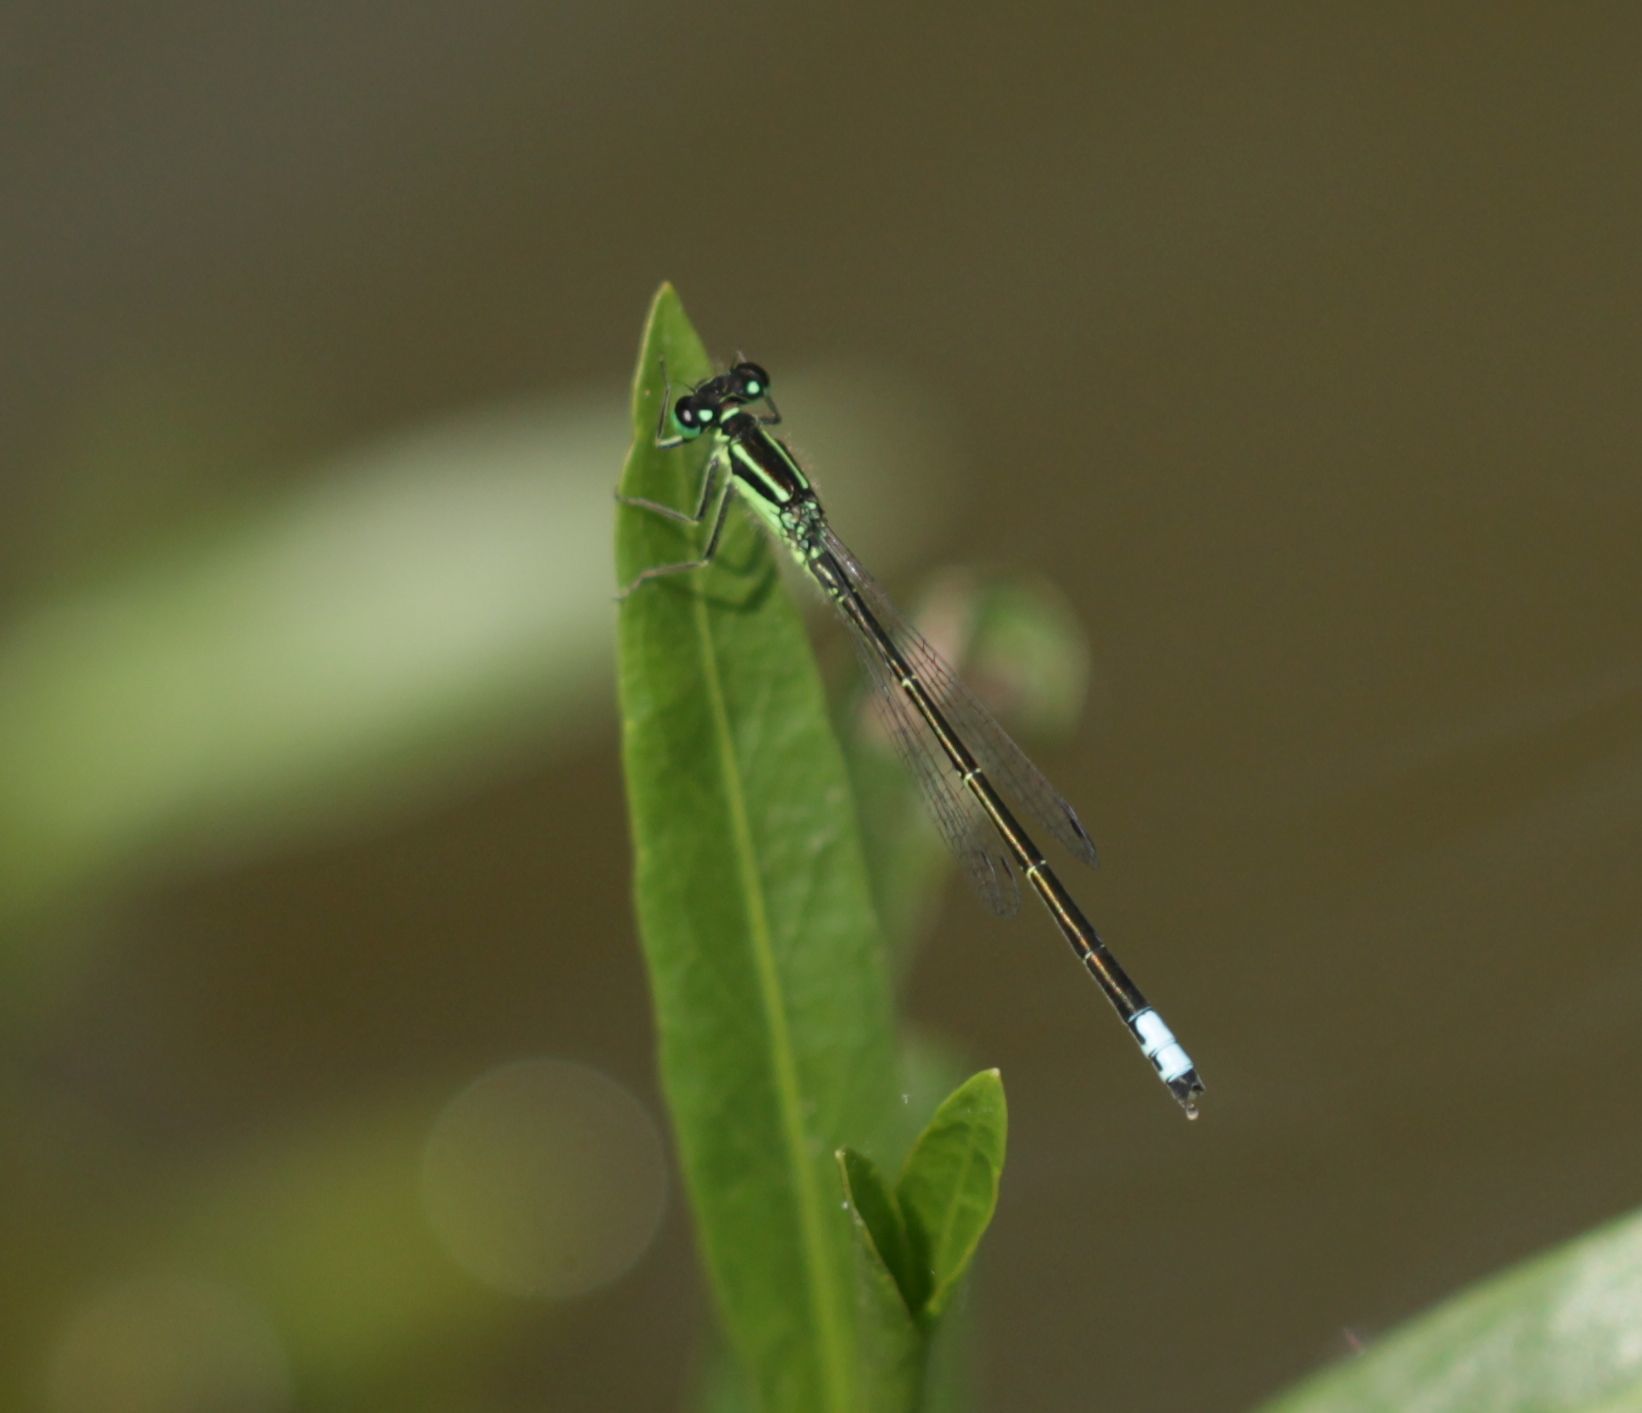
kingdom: Animalia
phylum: Arthropoda
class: Insecta
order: Odonata
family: Coenagrionidae
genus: Ischnura
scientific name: Ischnura verticalis
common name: Eastern forktail
